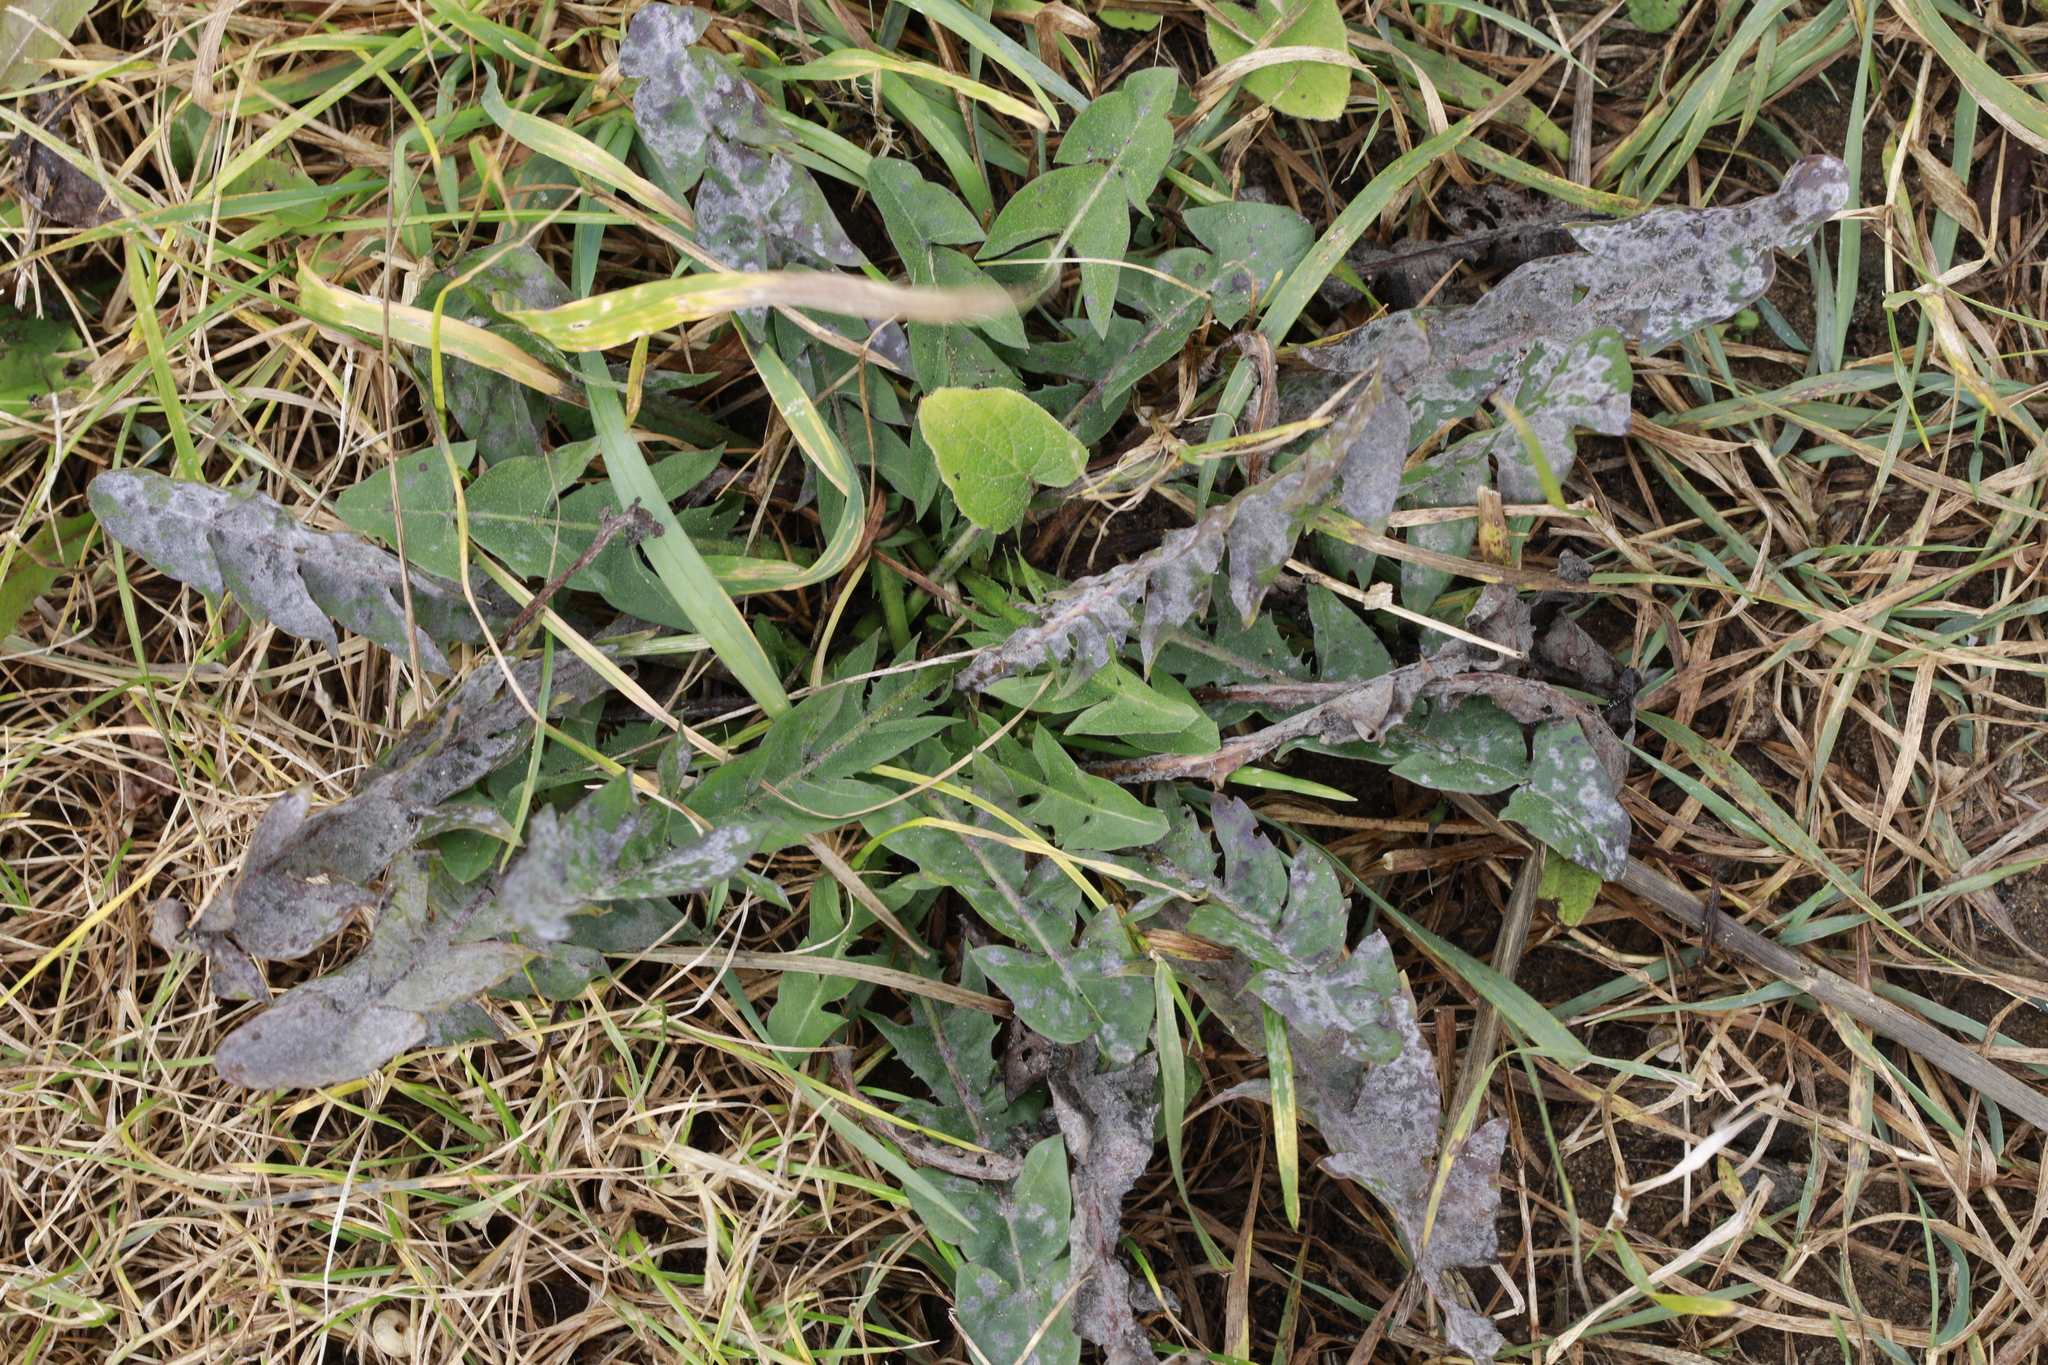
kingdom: Plantae
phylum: Tracheophyta
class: Magnoliopsida
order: Asterales
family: Asteraceae
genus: Taraxacum
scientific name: Taraxacum officinale
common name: Common dandelion
